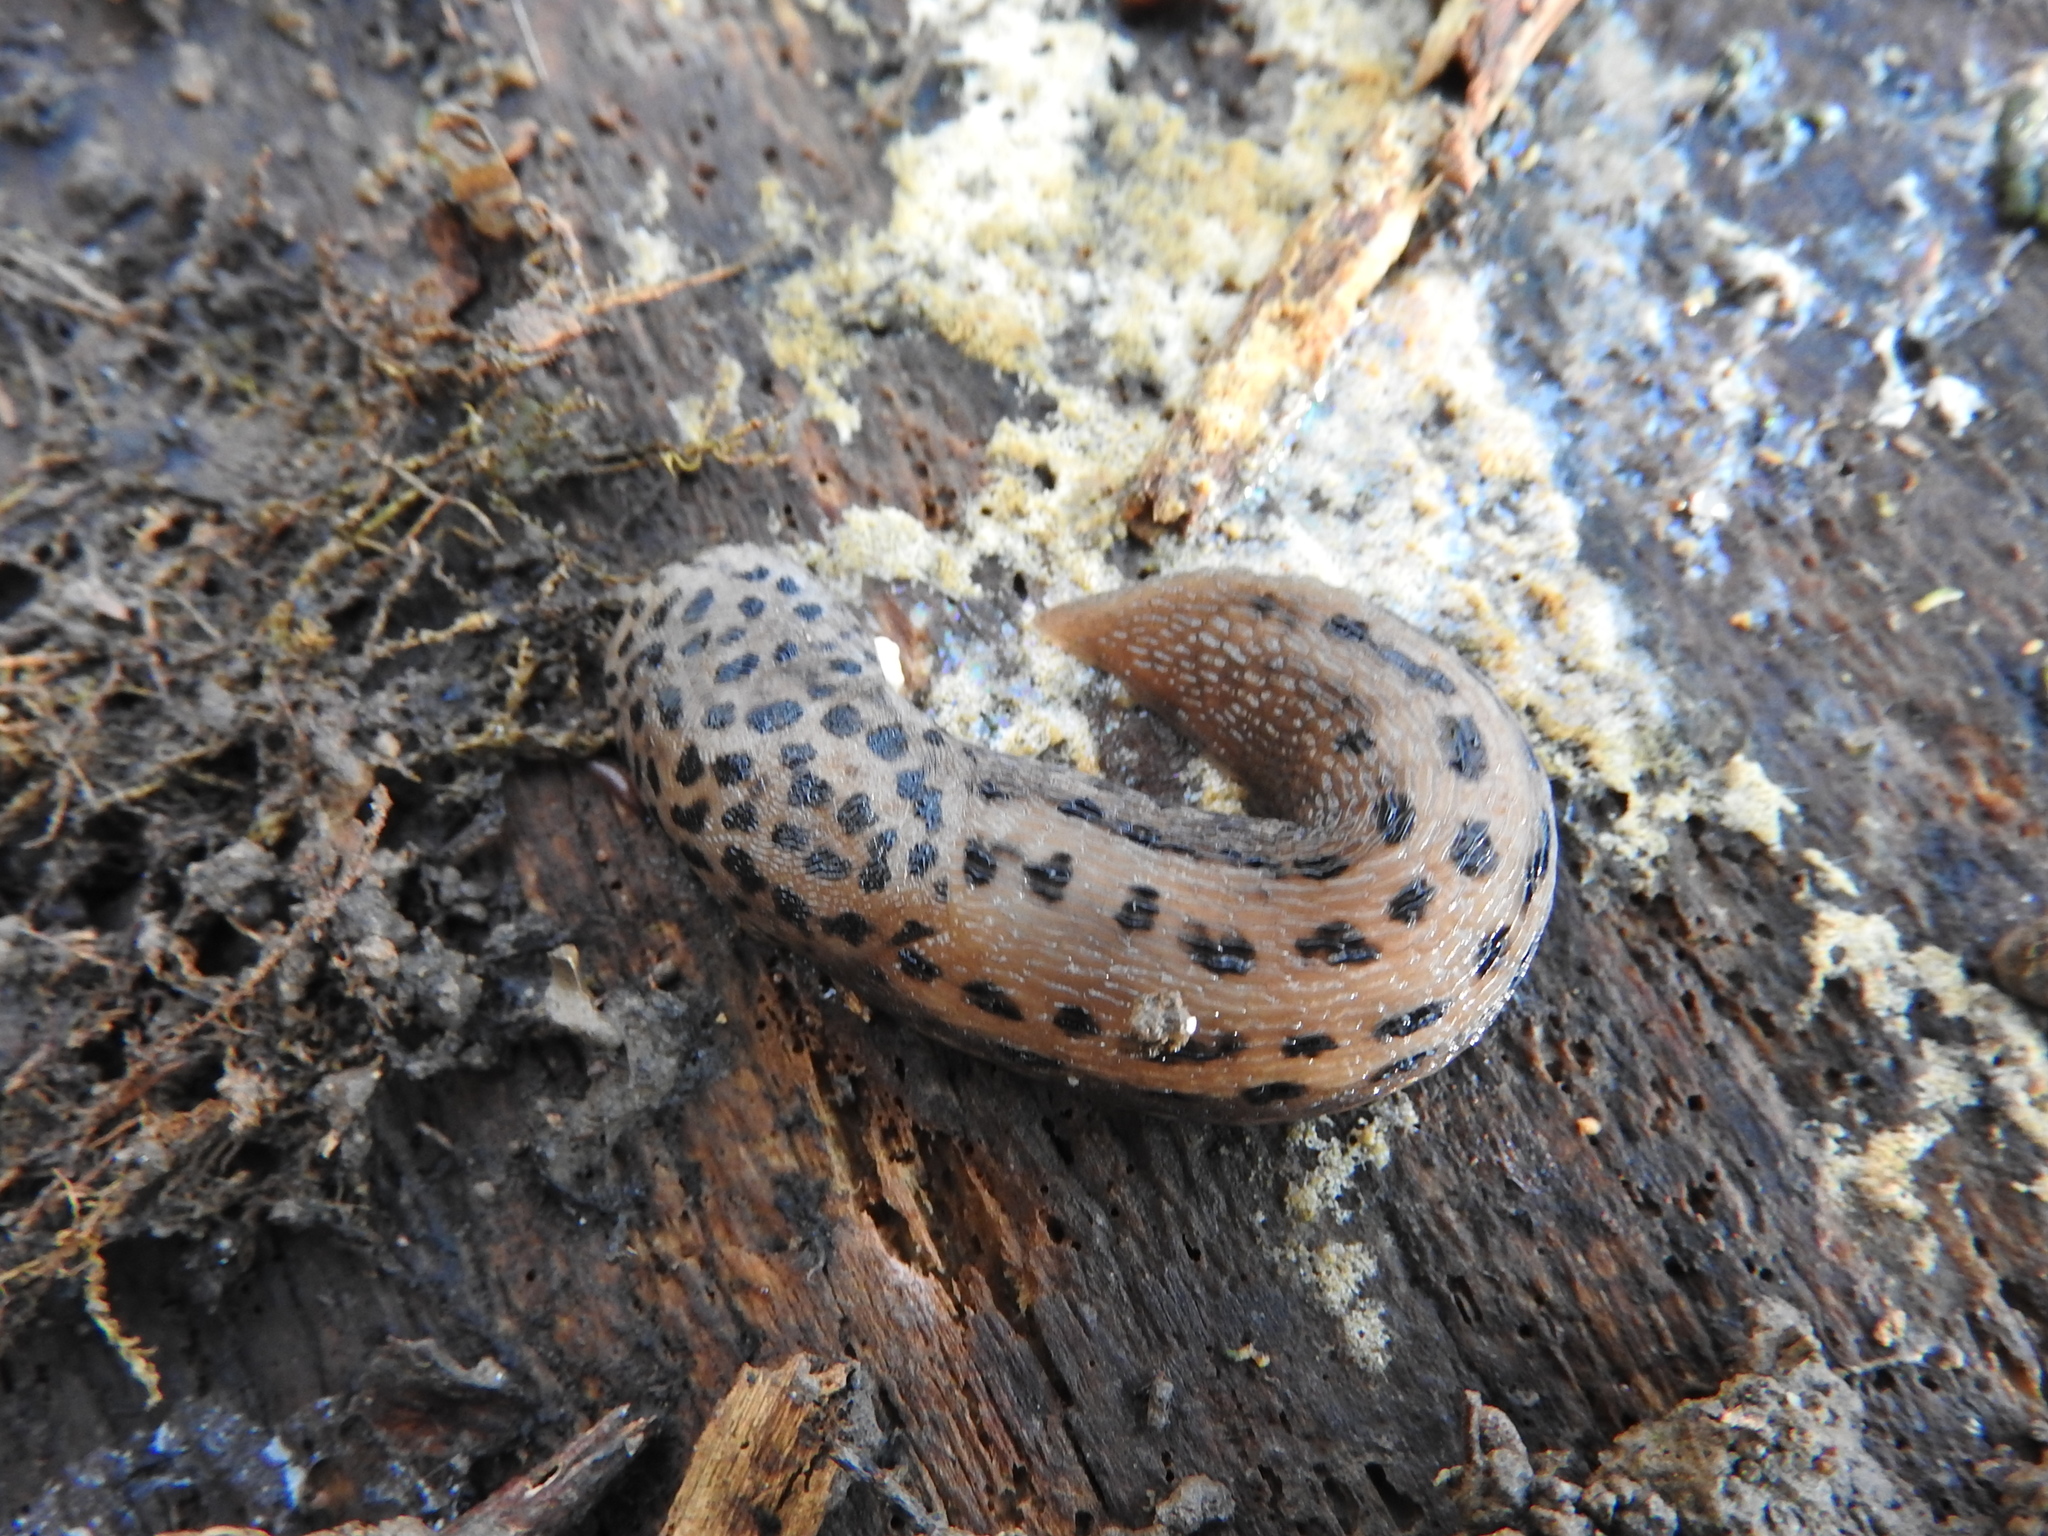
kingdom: Animalia
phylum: Mollusca
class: Gastropoda
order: Stylommatophora
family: Limacidae
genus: Limax
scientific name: Limax maximus
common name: Great grey slug
